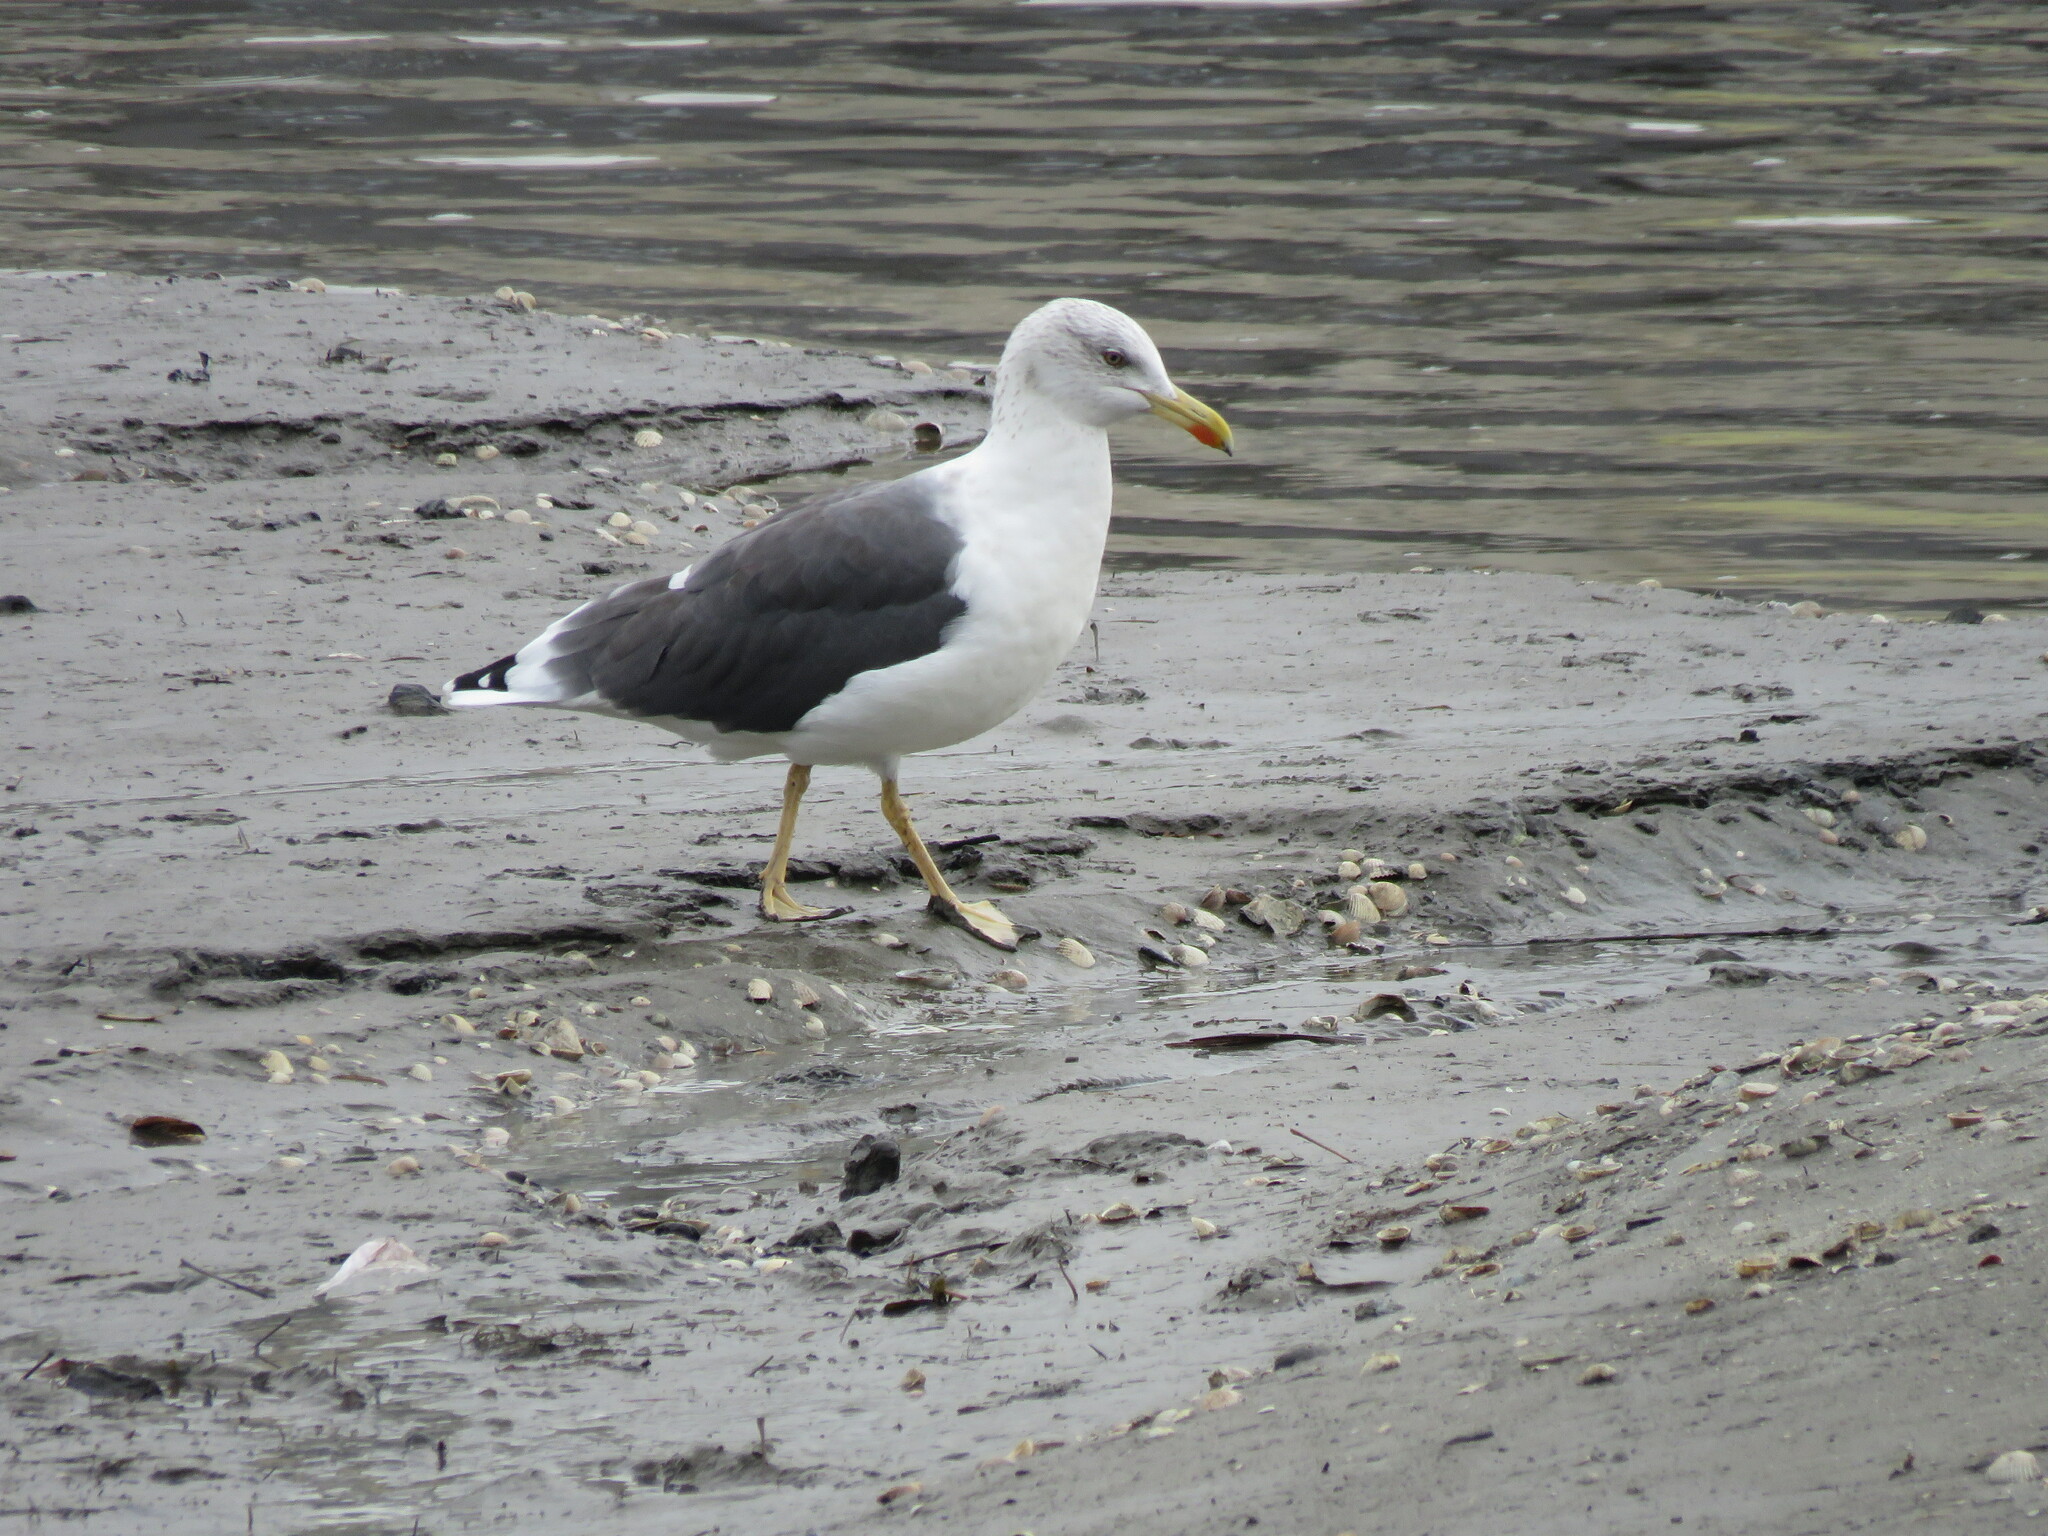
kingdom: Animalia
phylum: Chordata
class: Aves
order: Charadriiformes
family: Laridae
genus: Larus
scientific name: Larus fuscus
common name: Lesser black-backed gull
